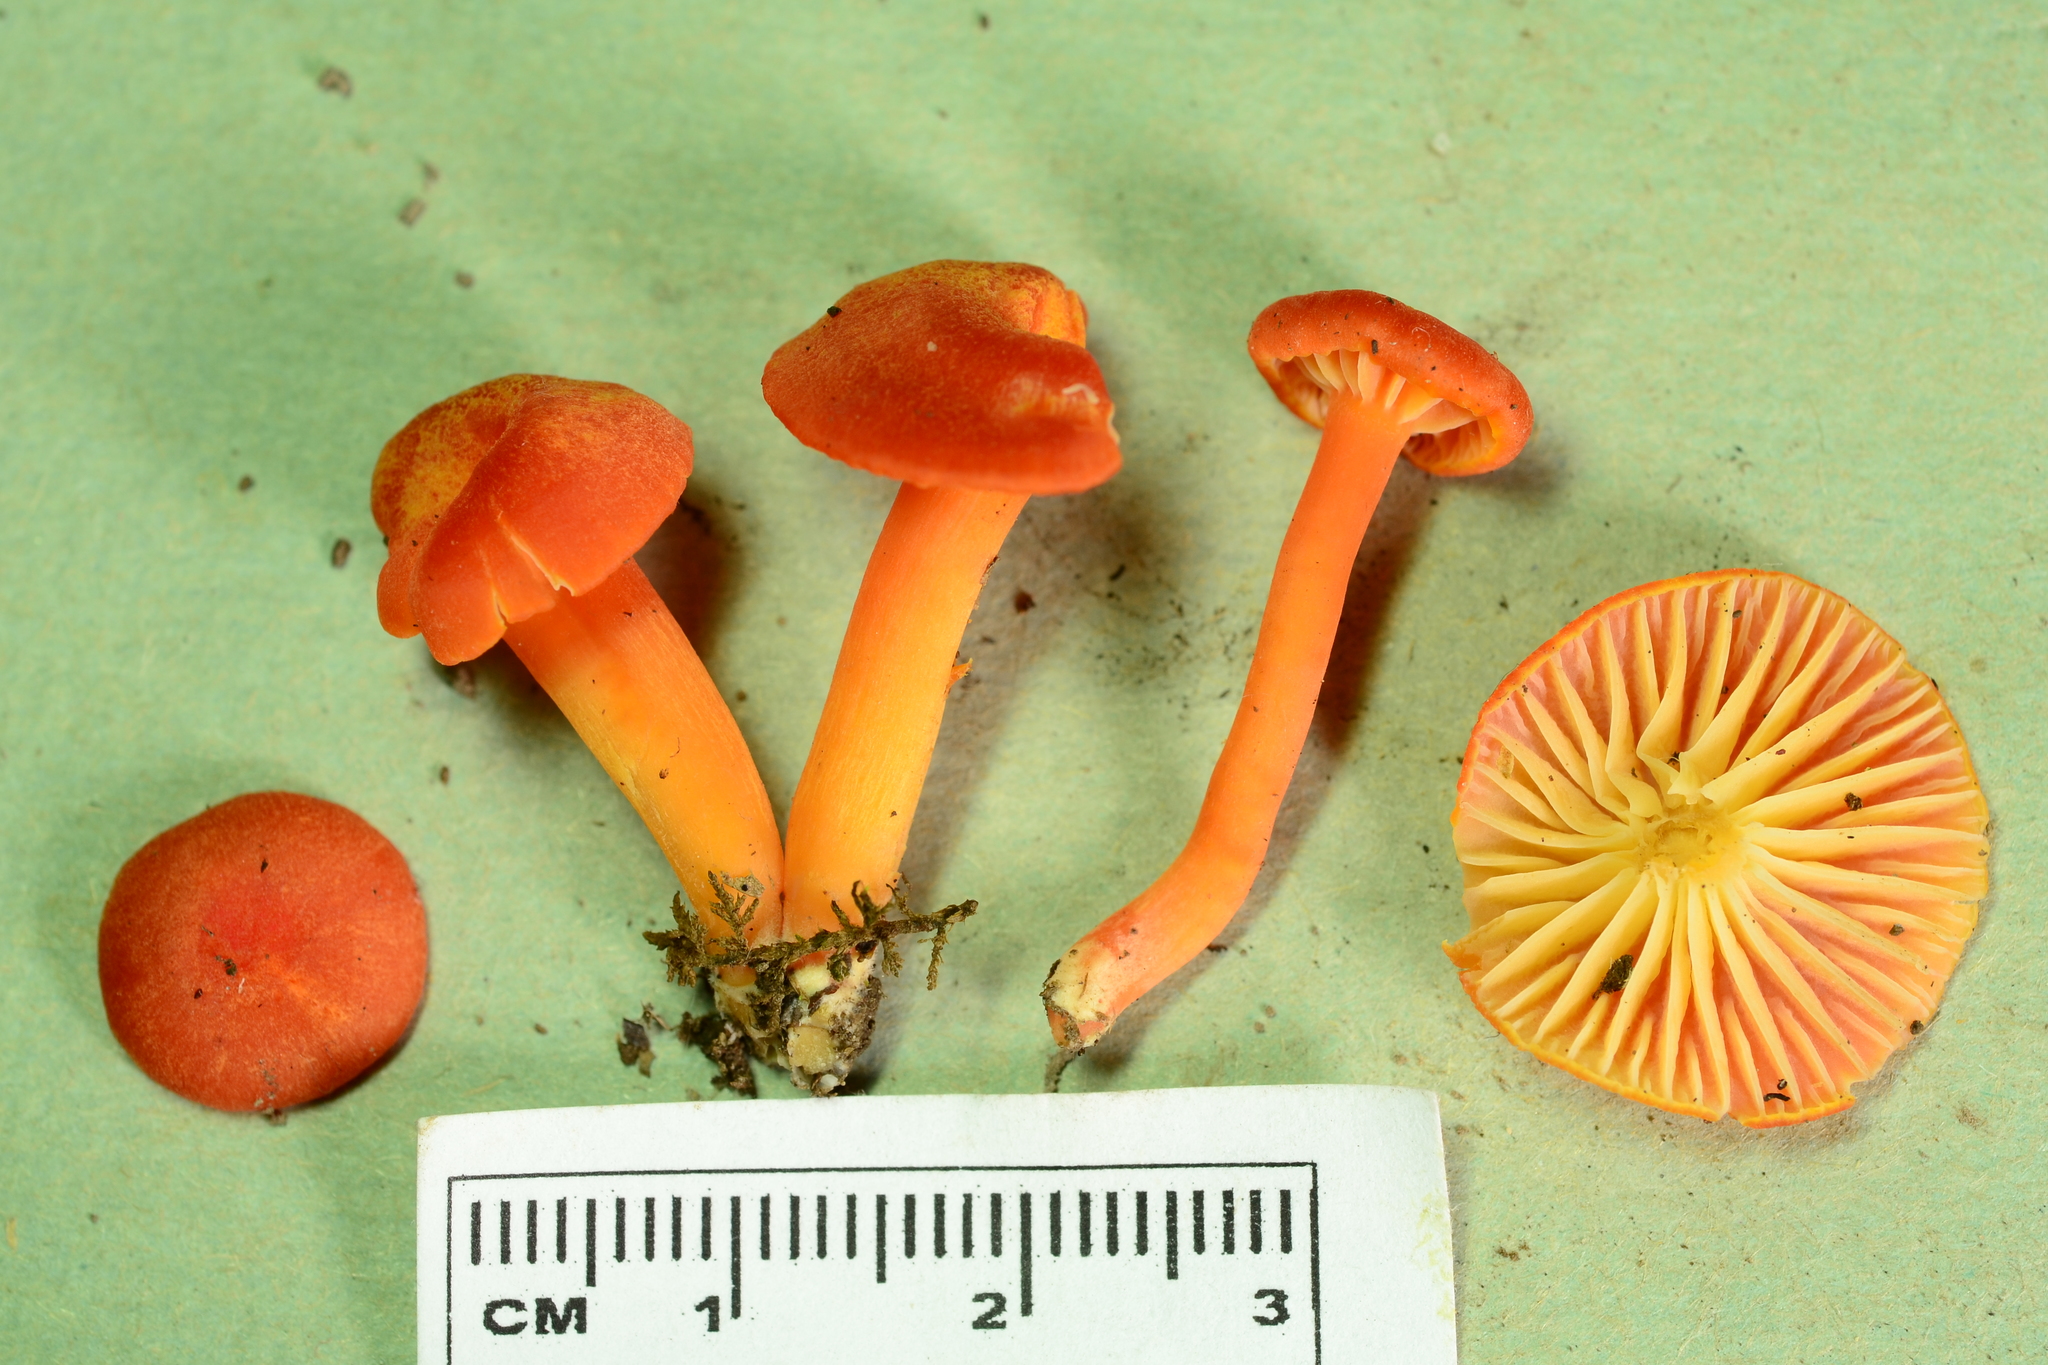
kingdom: Fungi
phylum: Basidiomycota
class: Agaricomycetes
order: Agaricales
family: Hygrophoraceae
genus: Hygrocybe
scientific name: Hygrocybe miniata
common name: Vermilion waxcap
